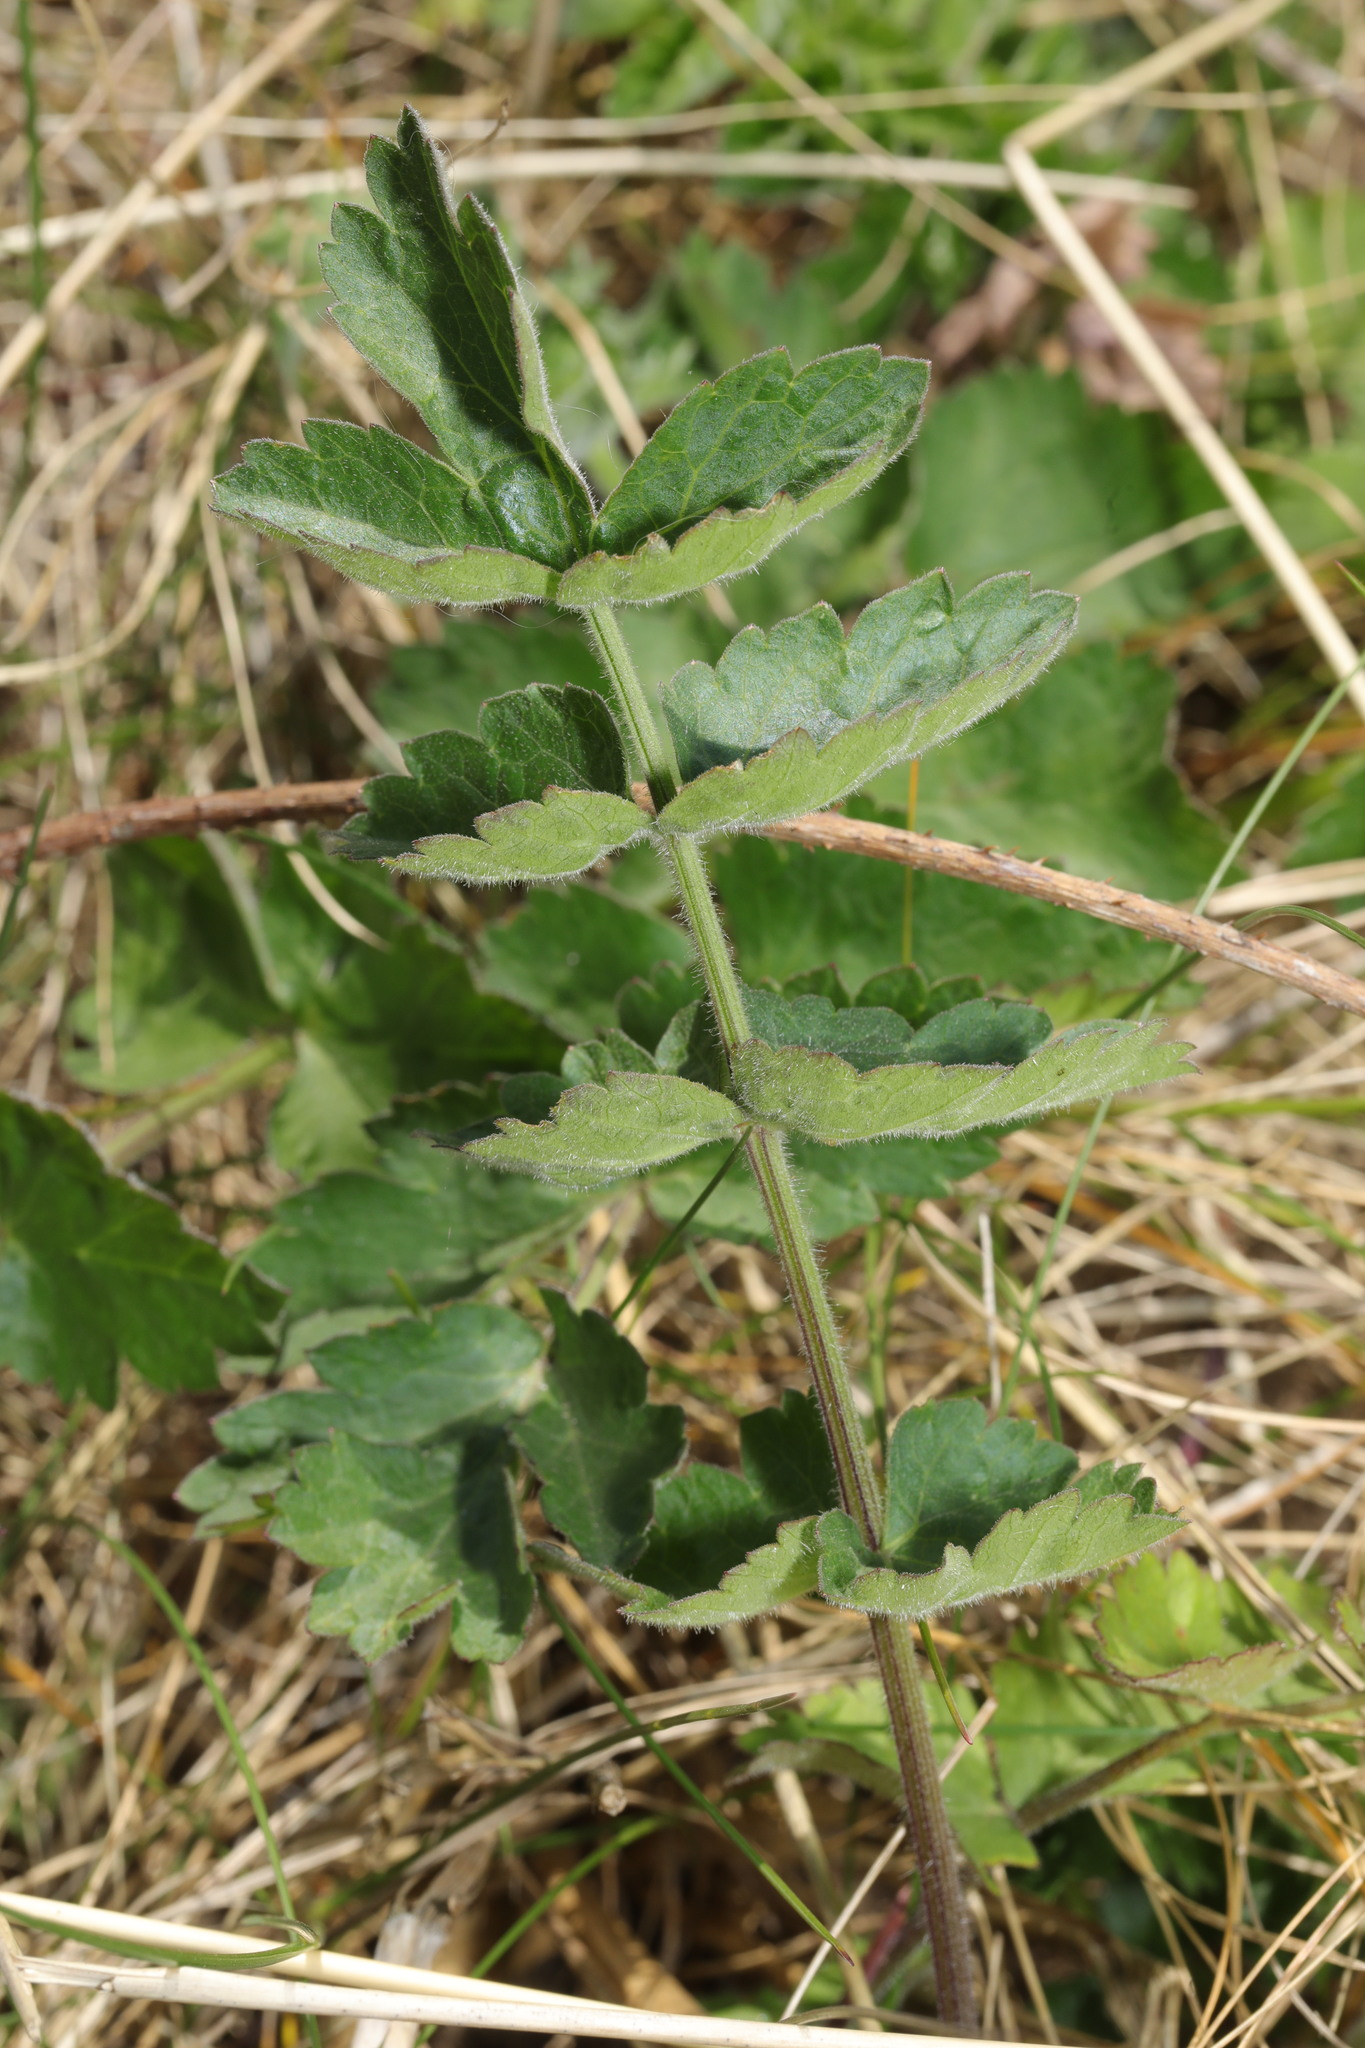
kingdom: Plantae
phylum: Tracheophyta
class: Magnoliopsida
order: Apiales
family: Apiaceae
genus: Pastinaca
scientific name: Pastinaca sativa
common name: Wild parsnip
